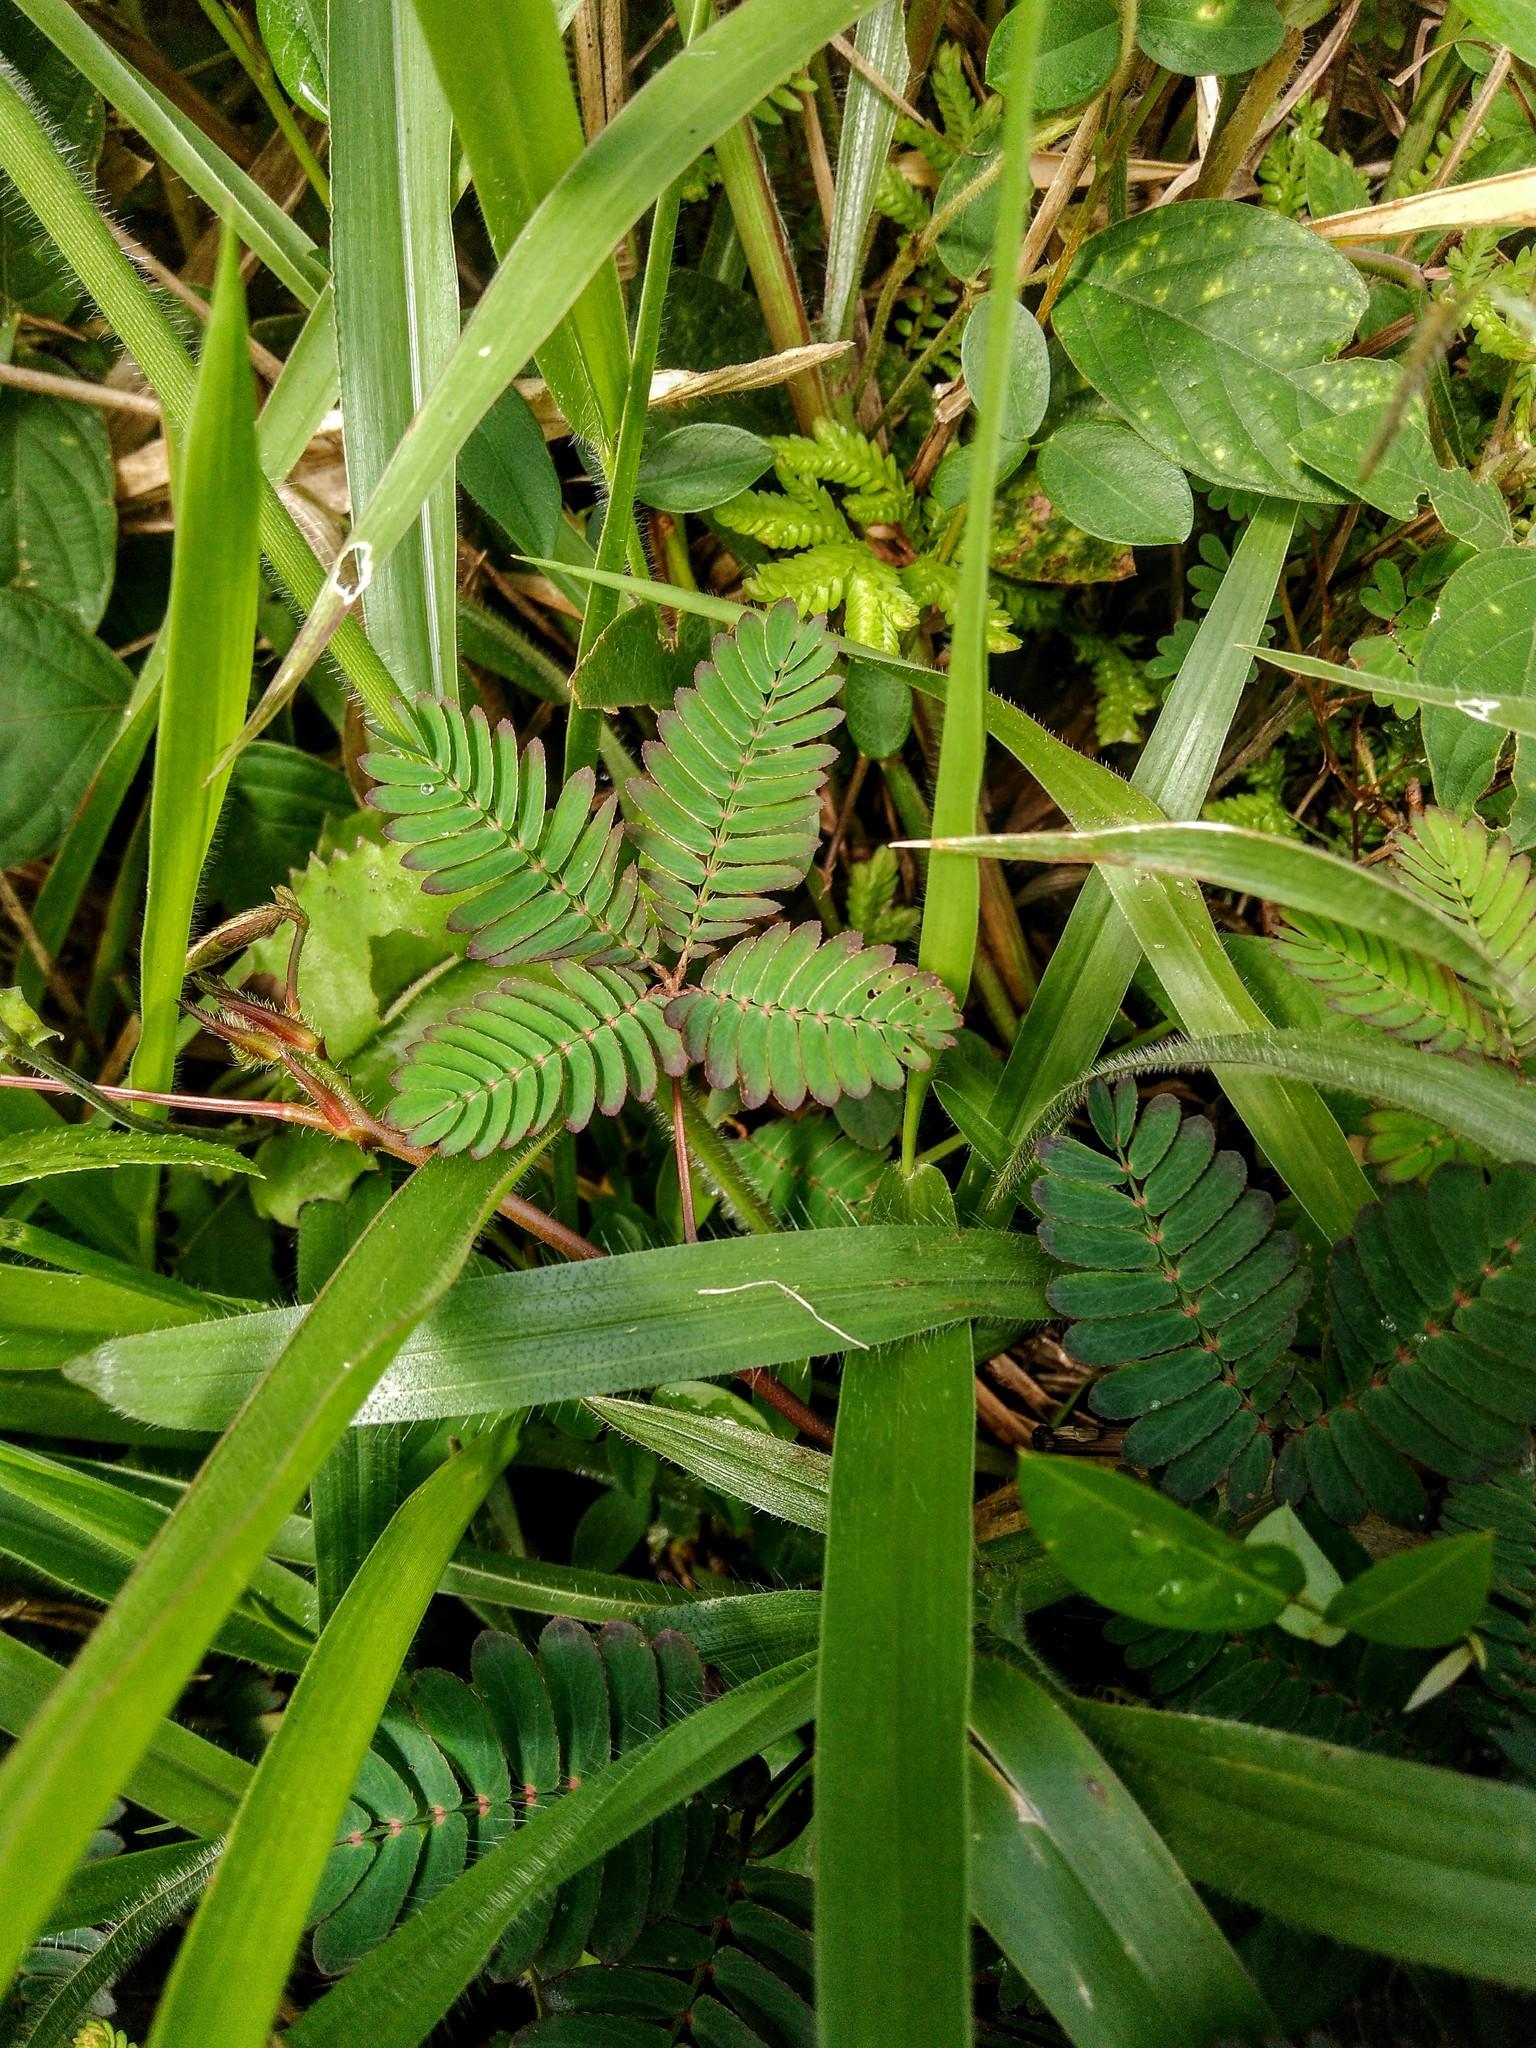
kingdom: Plantae
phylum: Tracheophyta
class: Magnoliopsida
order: Fabales
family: Fabaceae
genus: Mimosa
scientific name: Mimosa pudica
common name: Sensitive plant
